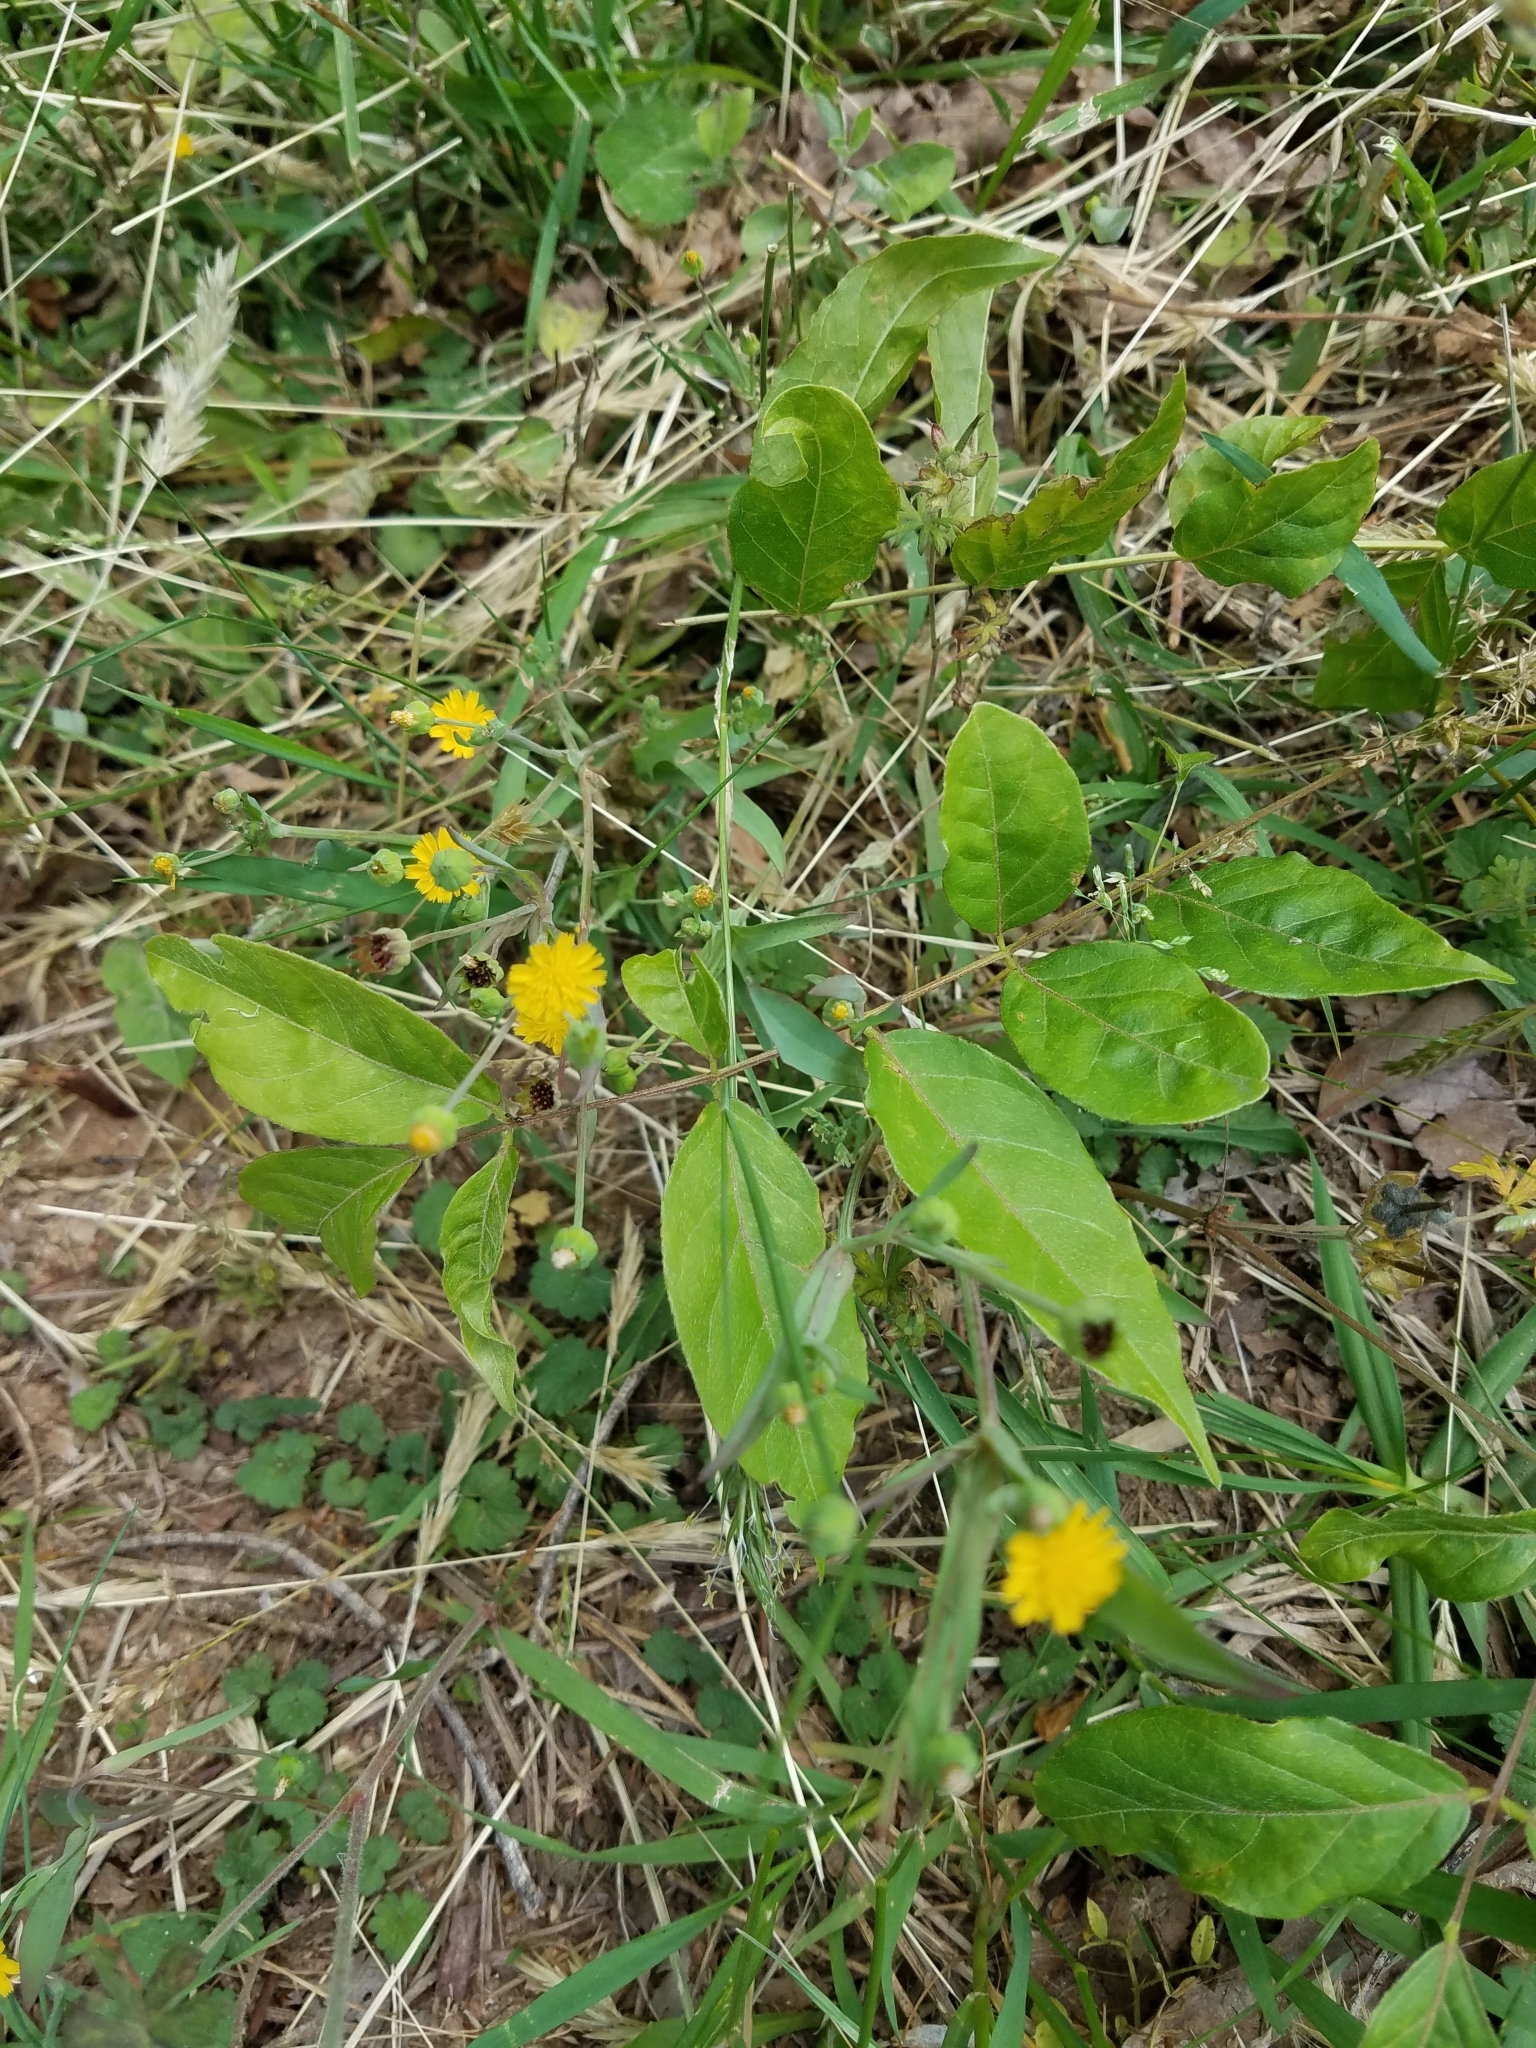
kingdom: Plantae
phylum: Tracheophyta
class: Magnoliopsida
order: Asterales
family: Asteraceae
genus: Lapsana
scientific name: Lapsana communis
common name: Nipplewort
